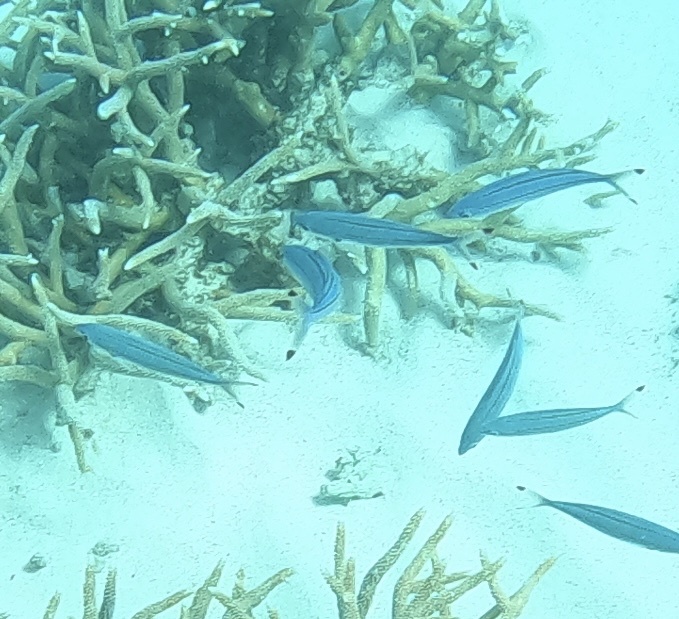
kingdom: Animalia
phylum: Chordata
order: Perciformes
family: Caesionidae
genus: Pterocaesio
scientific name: Pterocaesio digramma
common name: Double-lined fusilier
